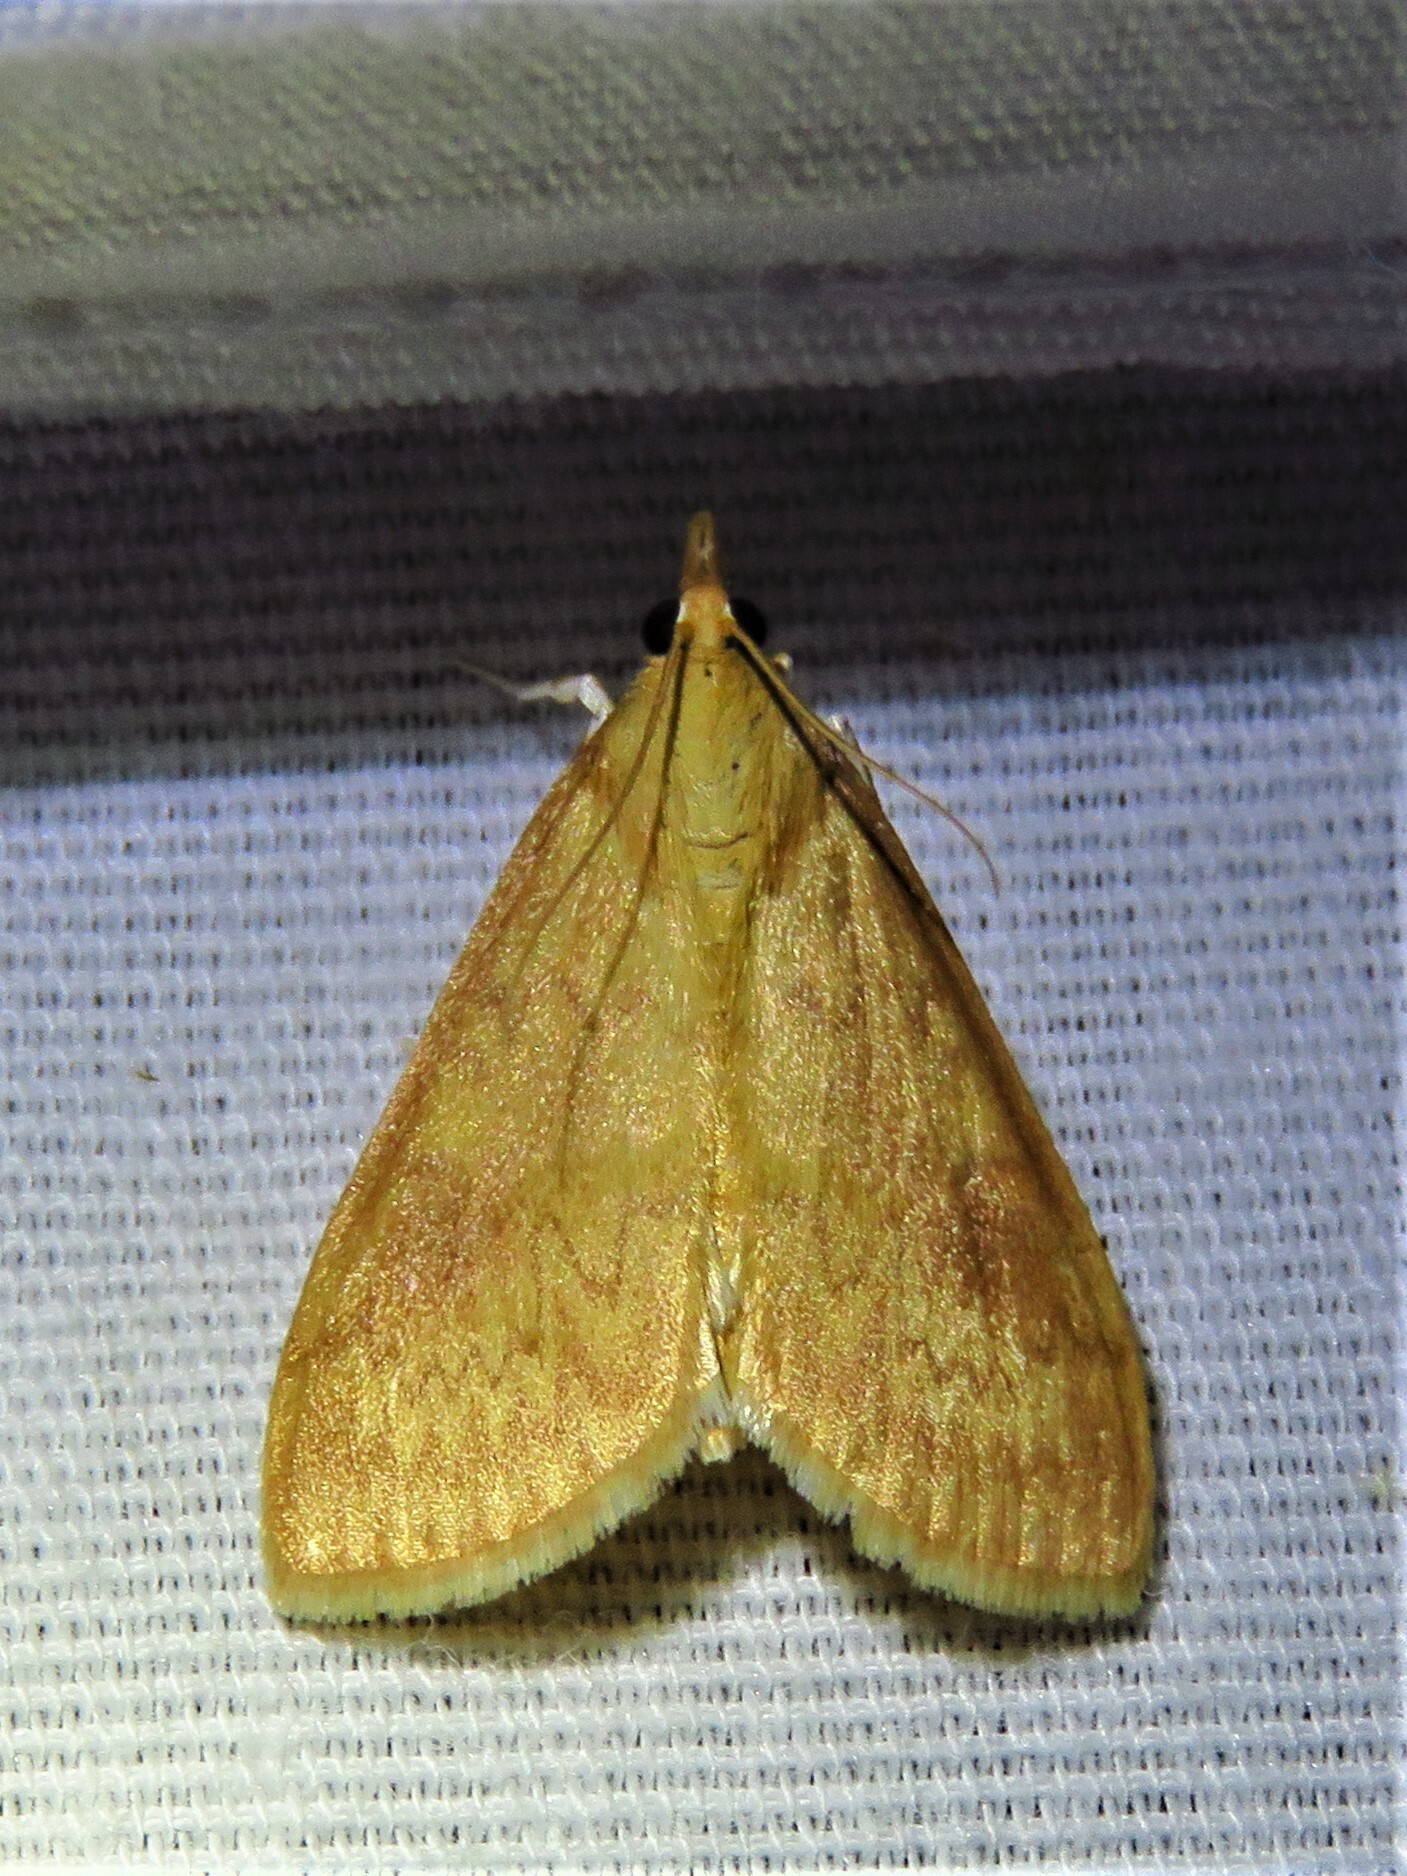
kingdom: Animalia
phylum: Arthropoda
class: Insecta
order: Lepidoptera
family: Crambidae
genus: Ostrinia
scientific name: Ostrinia penitalis
